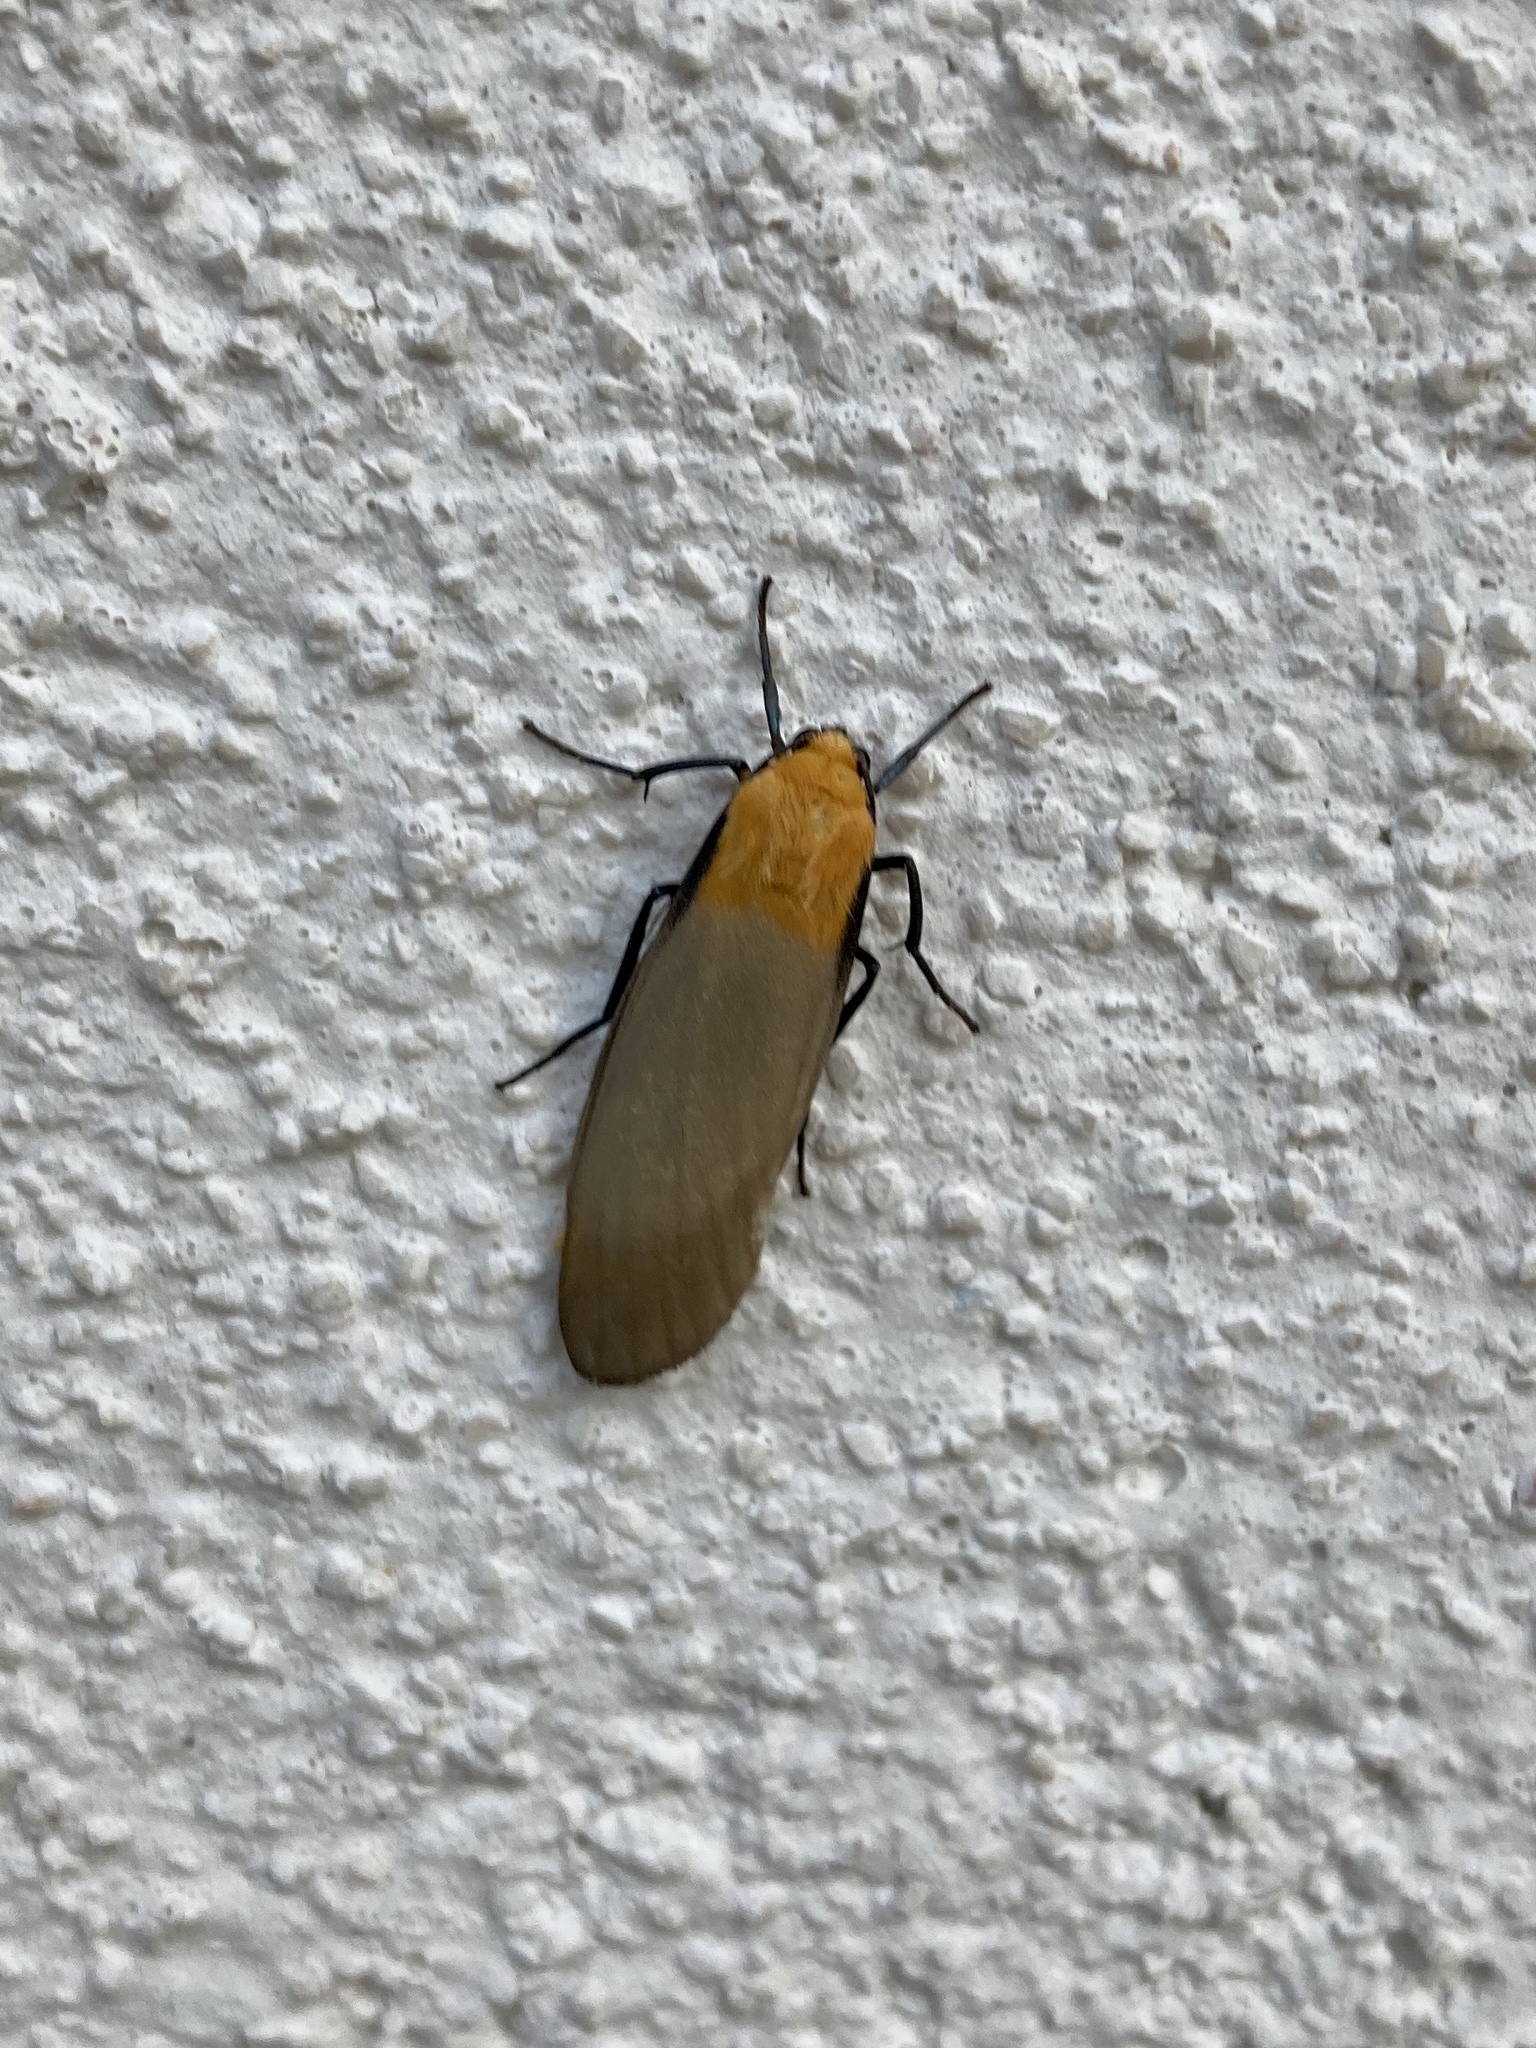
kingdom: Animalia
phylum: Arthropoda
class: Insecta
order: Lepidoptera
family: Erebidae
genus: Lithosia
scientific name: Lithosia quadra
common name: Four-spotted footman
